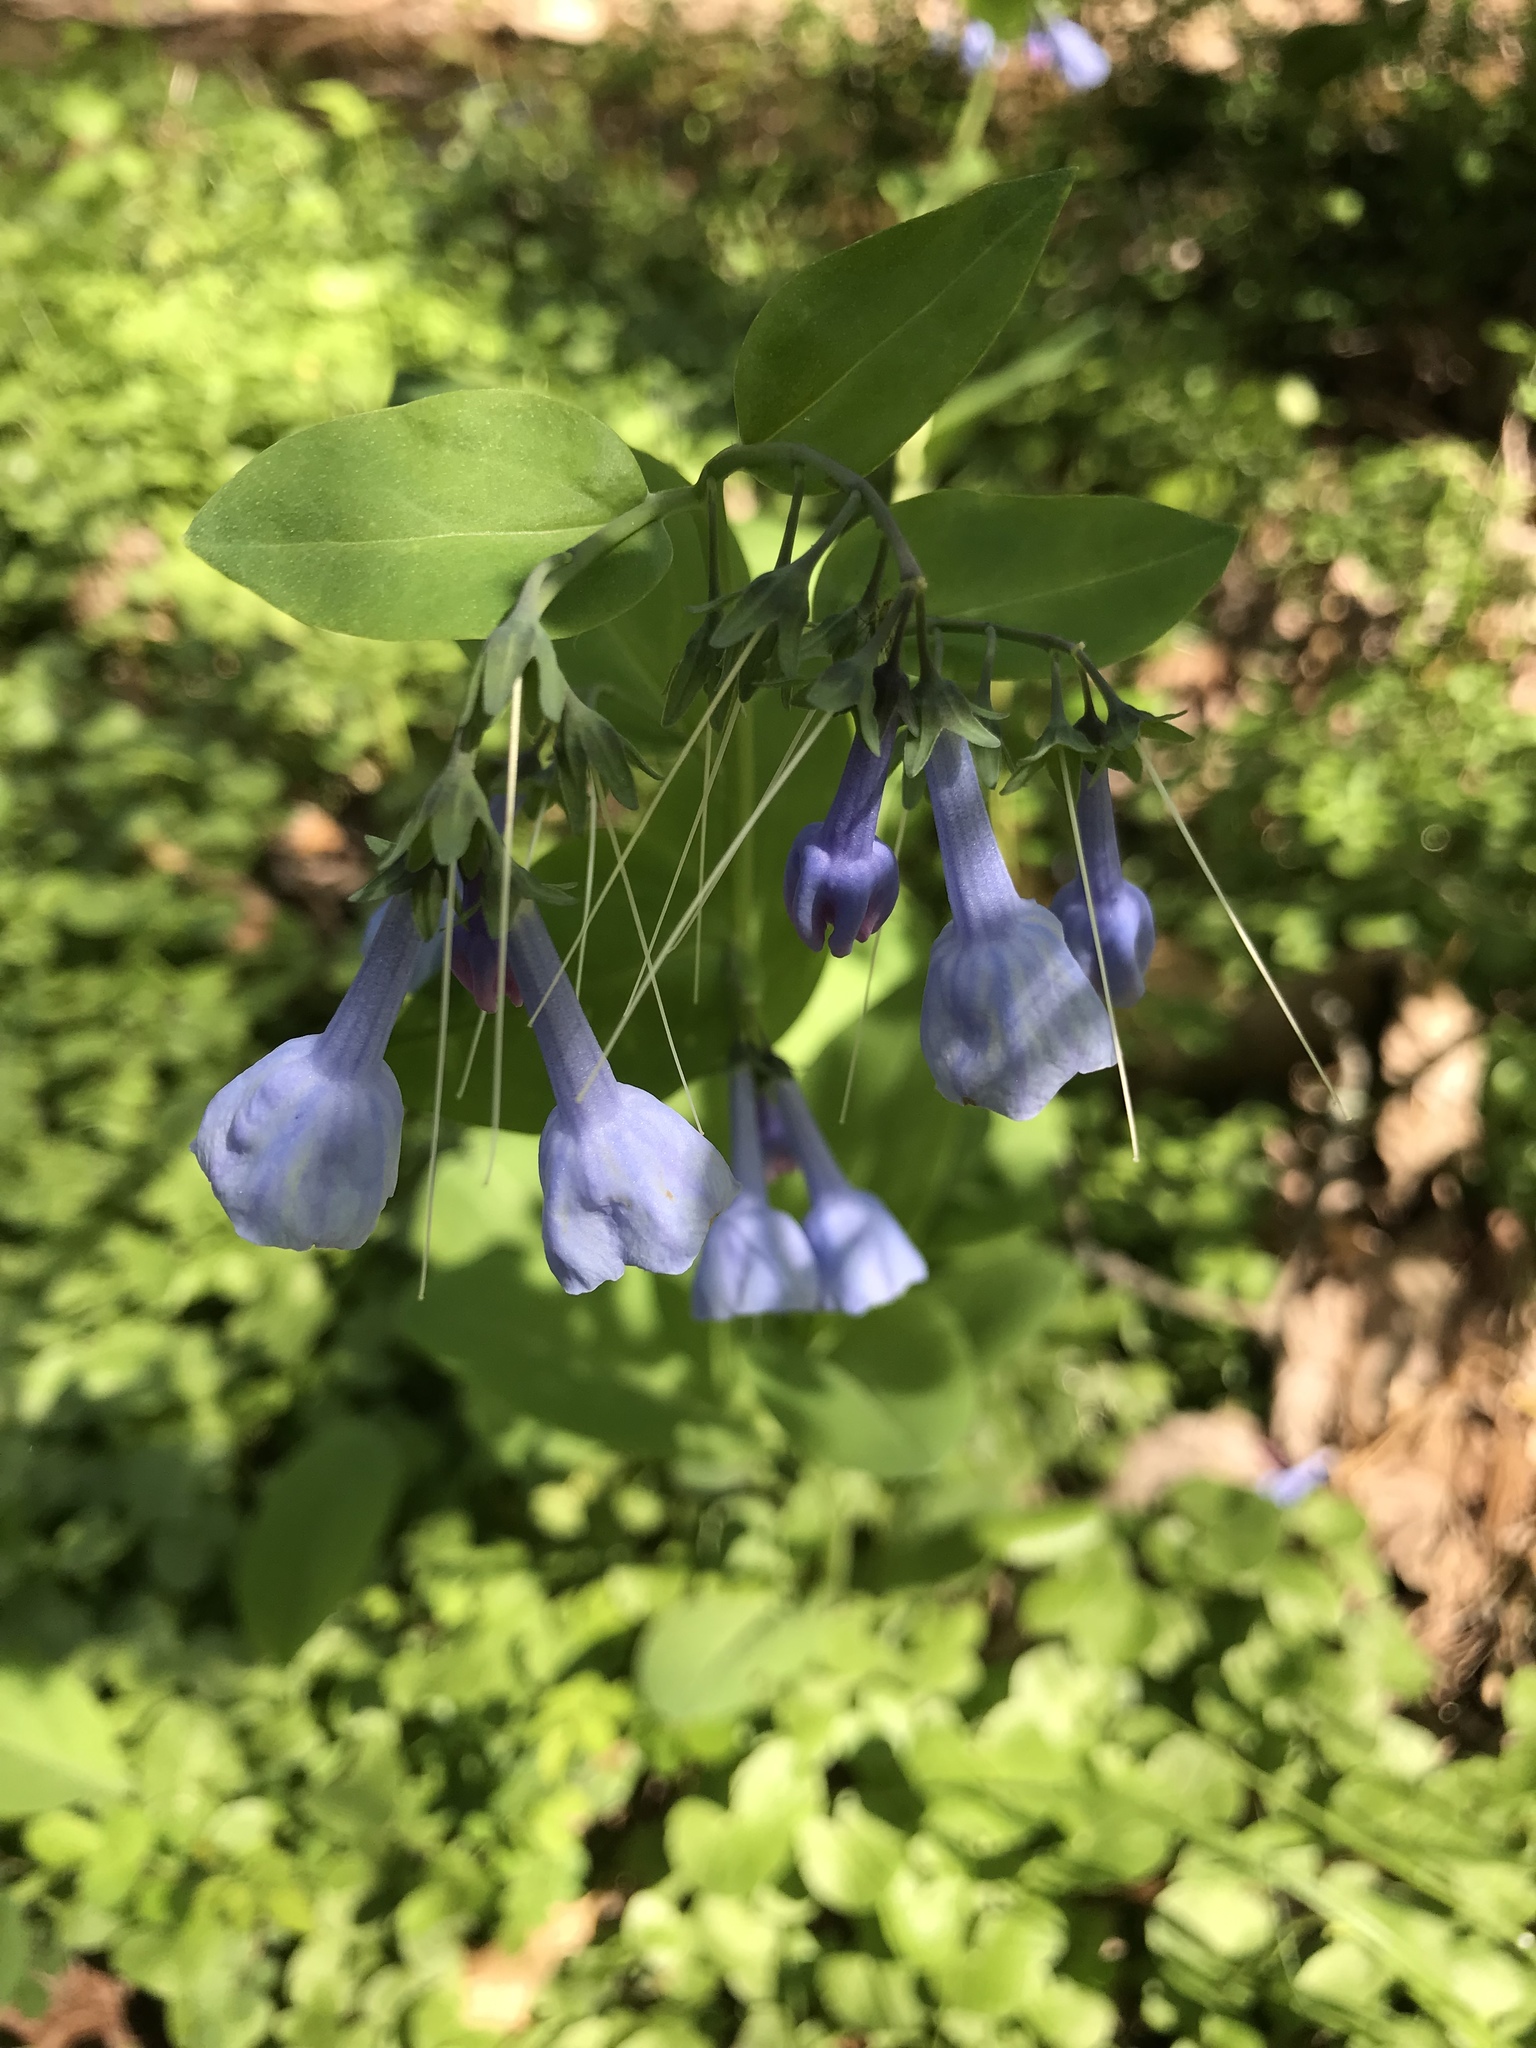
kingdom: Plantae
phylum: Tracheophyta
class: Magnoliopsida
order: Boraginales
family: Boraginaceae
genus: Mertensia
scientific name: Mertensia virginica
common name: Virginia bluebells
